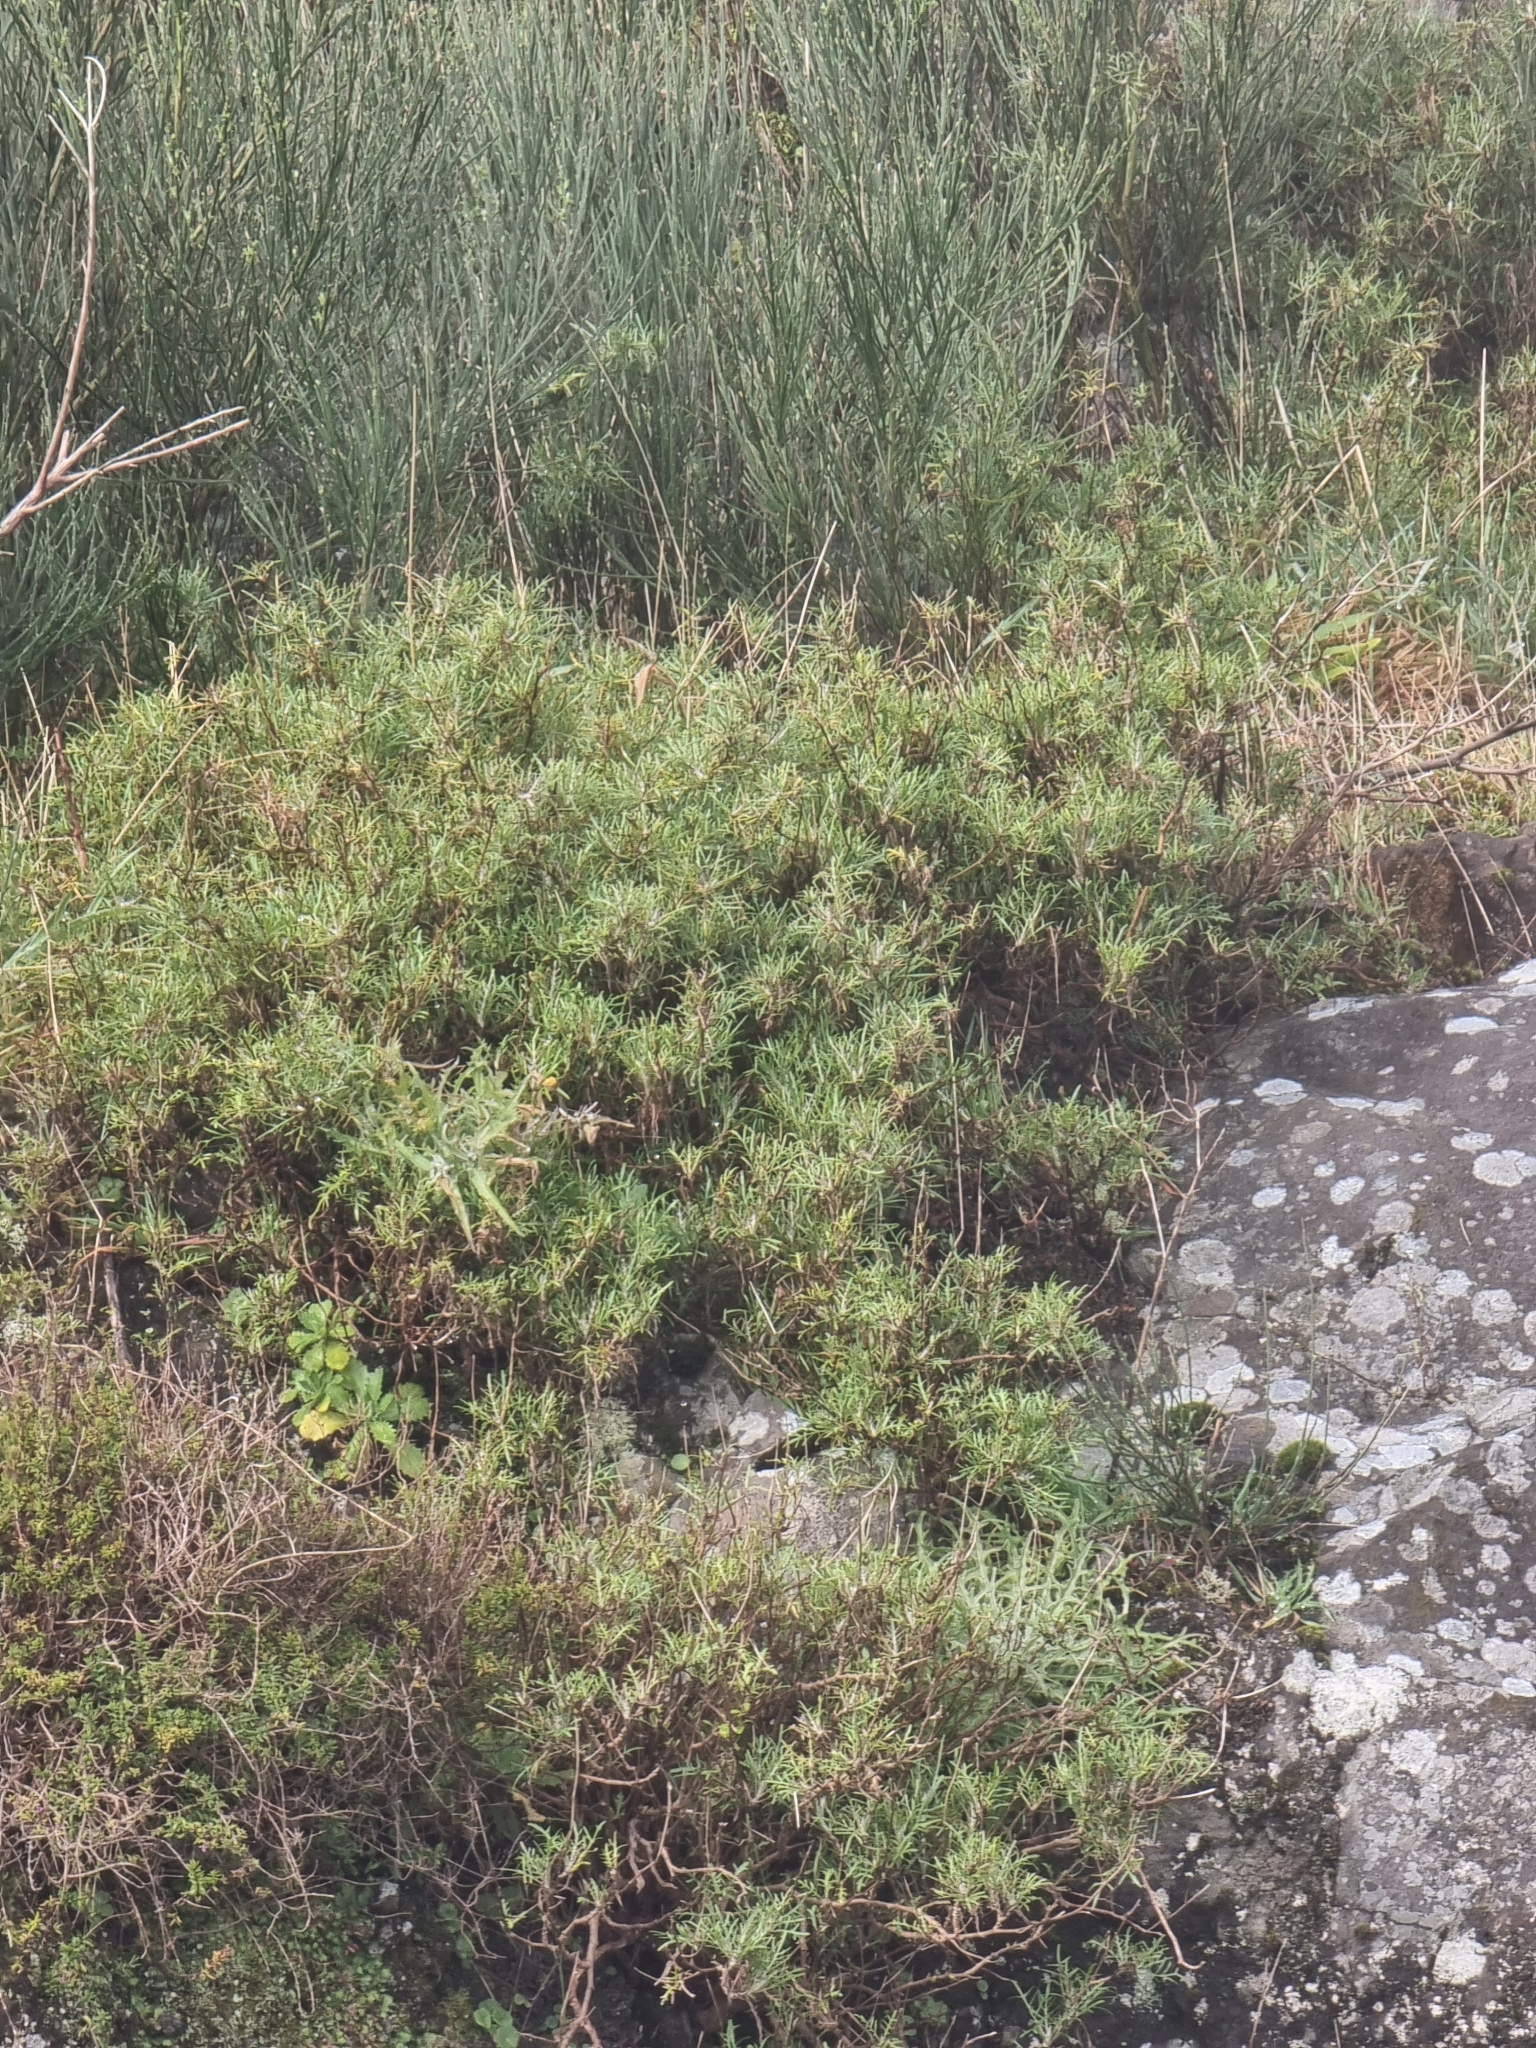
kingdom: Plantae
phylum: Tracheophyta
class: Magnoliopsida
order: Asterales
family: Asteraceae
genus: Tolpis
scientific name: Tolpis succulenta
